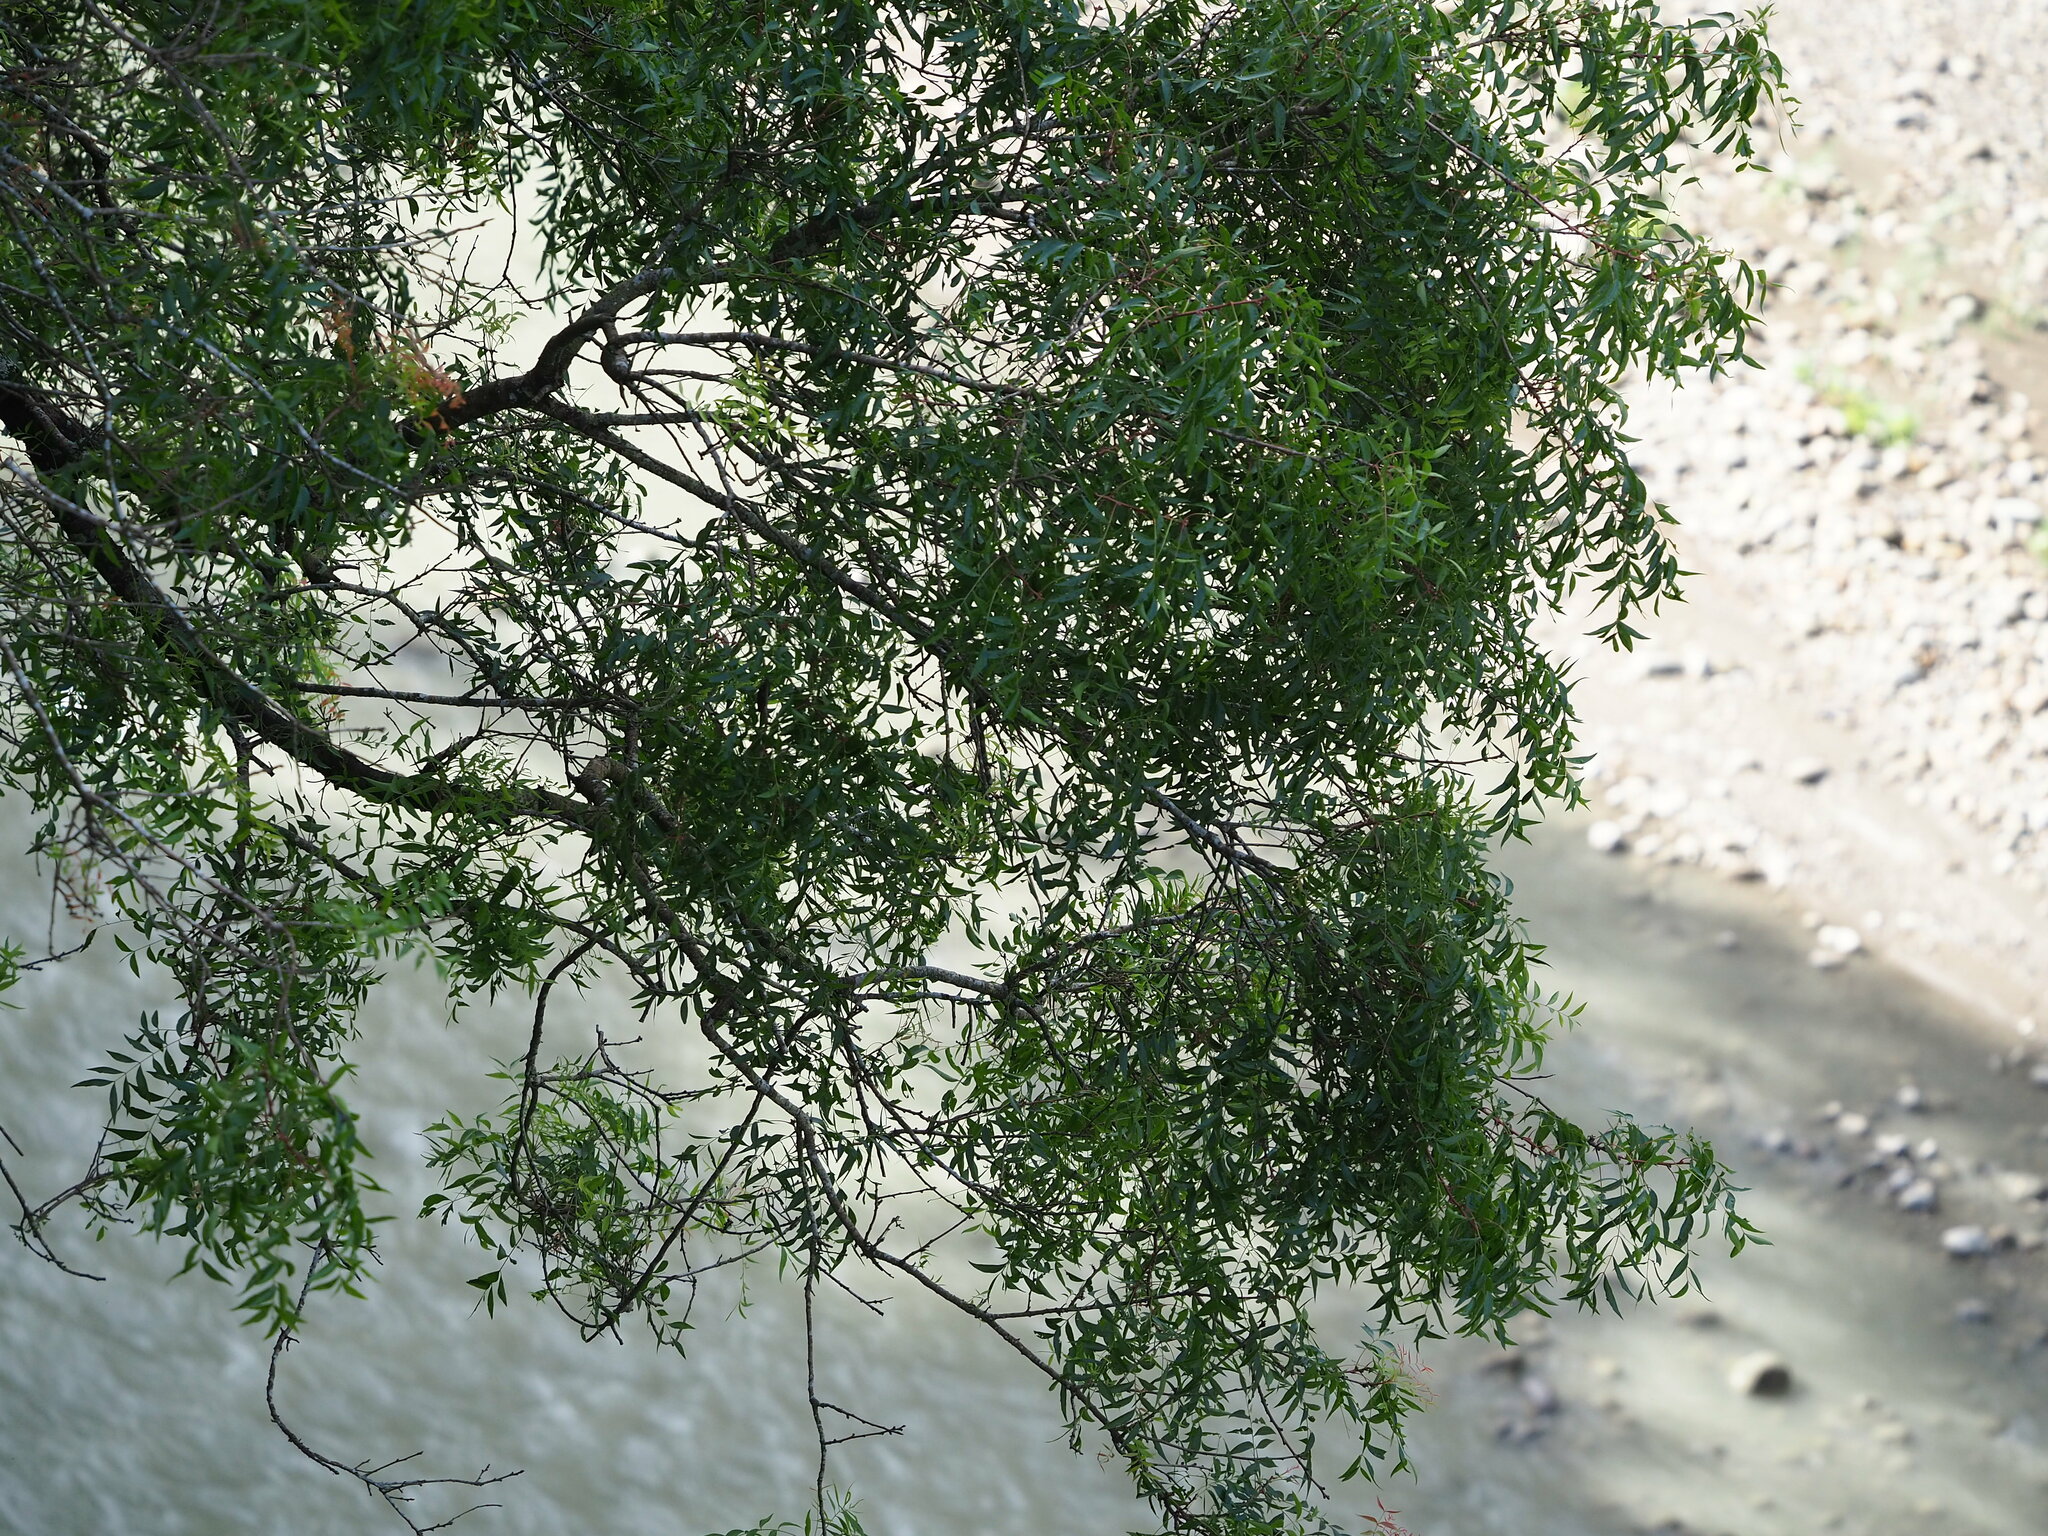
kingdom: Plantae
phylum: Tracheophyta
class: Magnoliopsida
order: Sapindales
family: Anacardiaceae
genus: Pistacia
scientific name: Pistacia chinensis
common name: Chinese pistache
